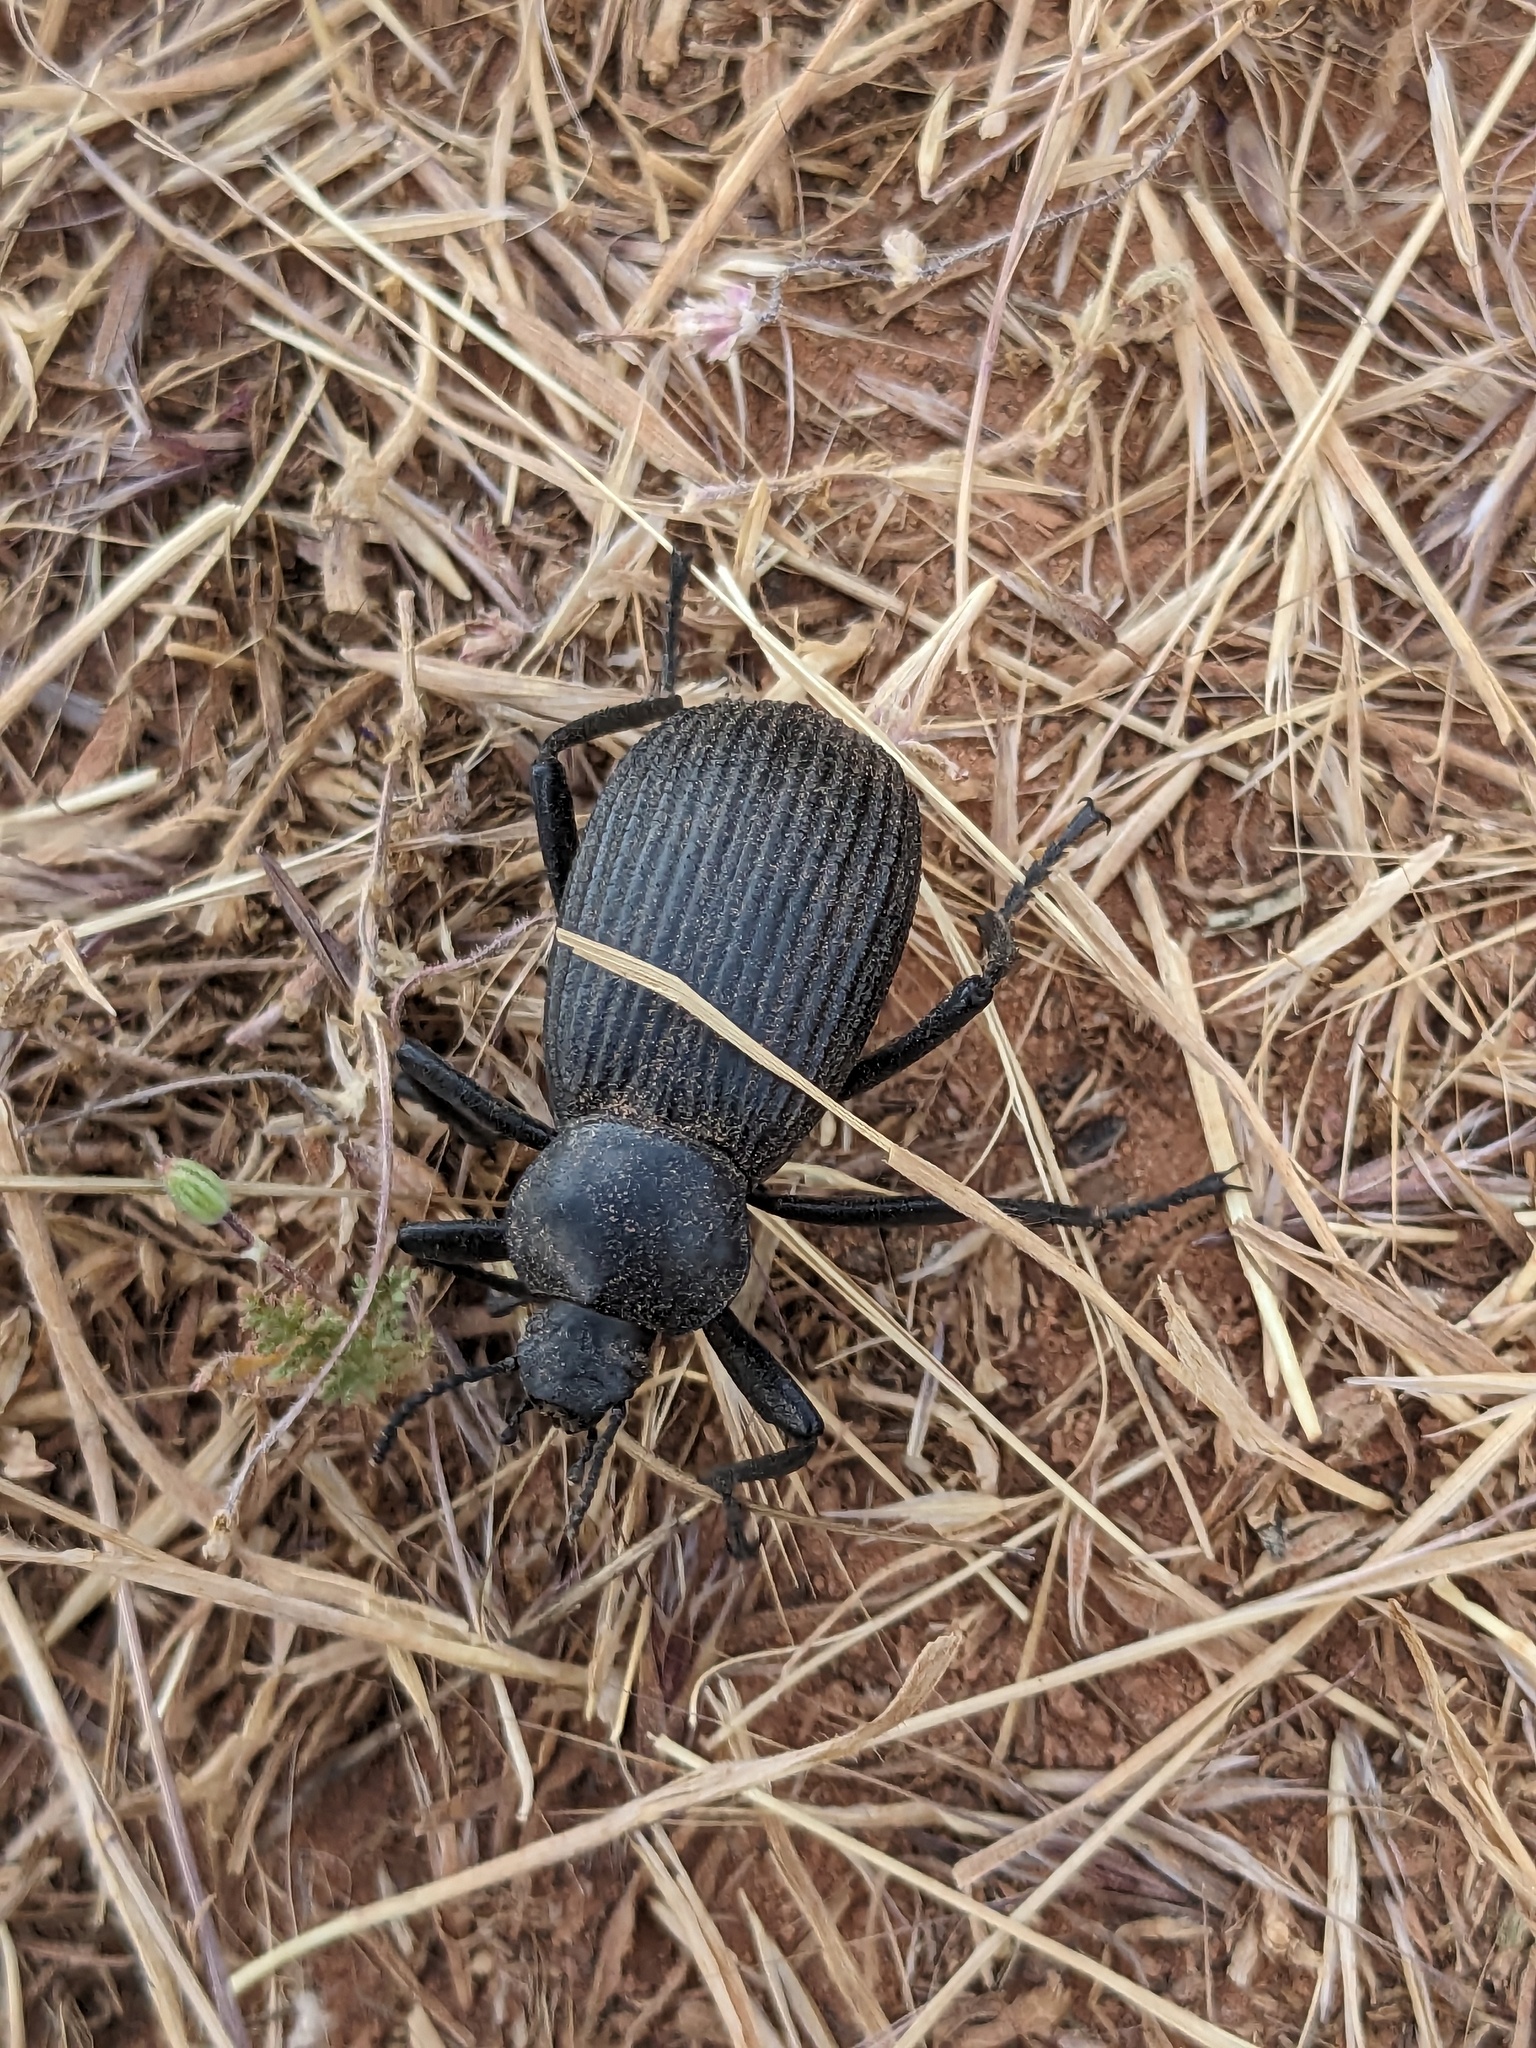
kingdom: Animalia
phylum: Arthropoda
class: Insecta
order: Coleoptera
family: Tenebrionidae
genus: Eleodes
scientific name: Eleodes obscura
